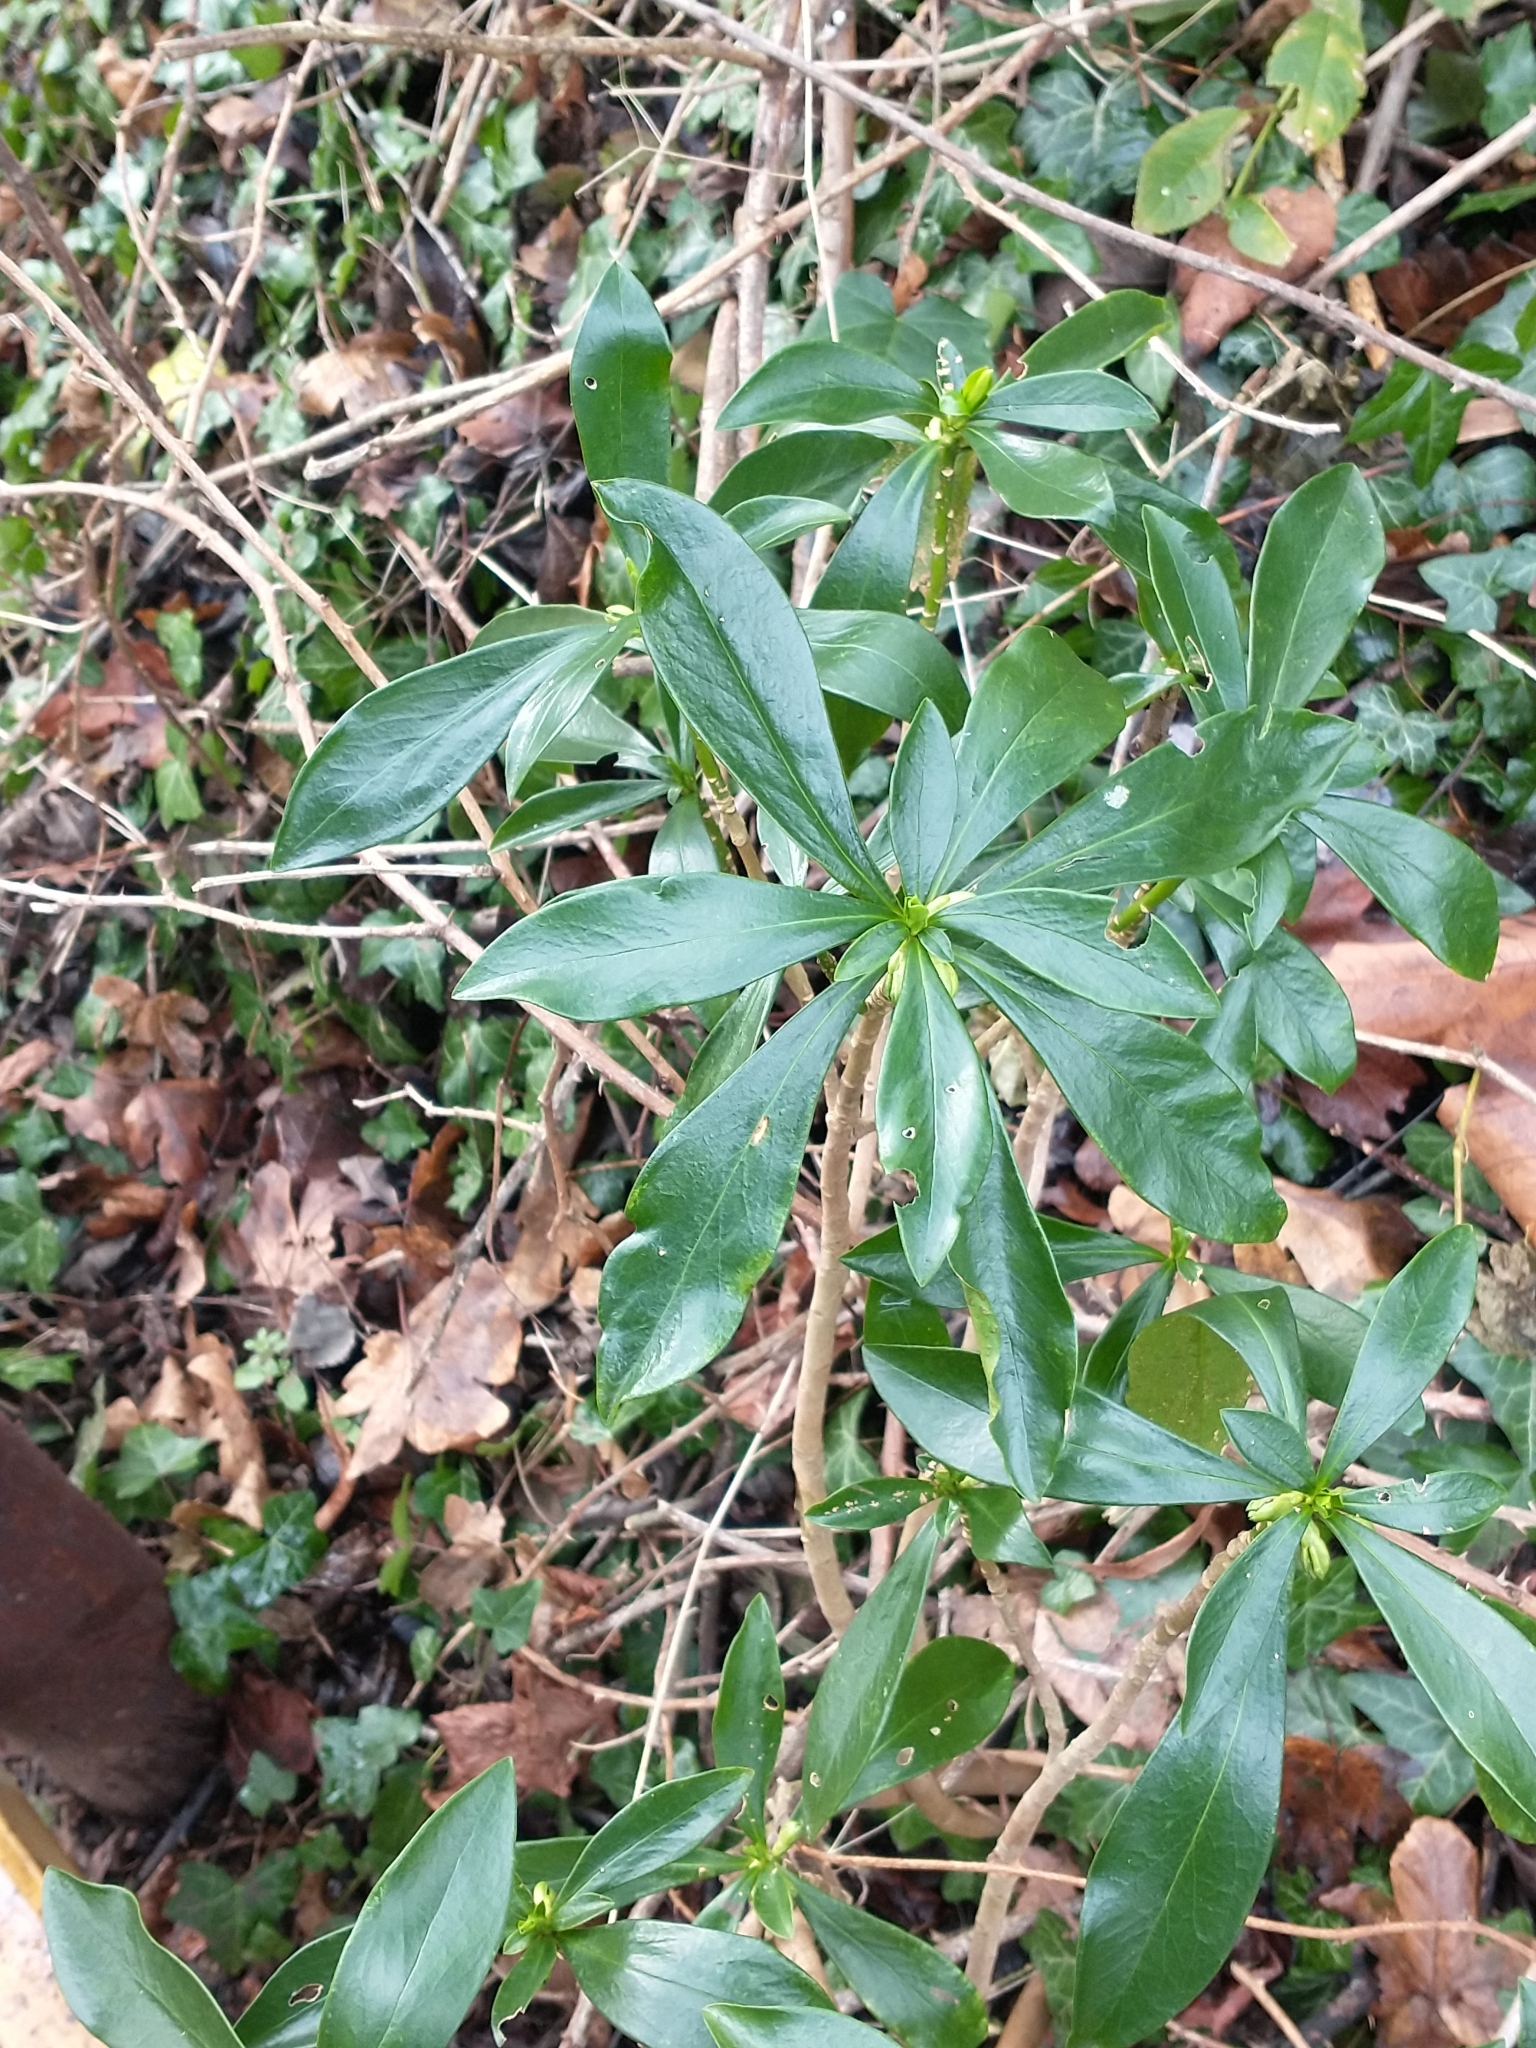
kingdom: Plantae
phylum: Tracheophyta
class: Magnoliopsida
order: Malvales
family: Thymelaeaceae
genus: Daphne
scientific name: Daphne laureola
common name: Spurge-laurel
